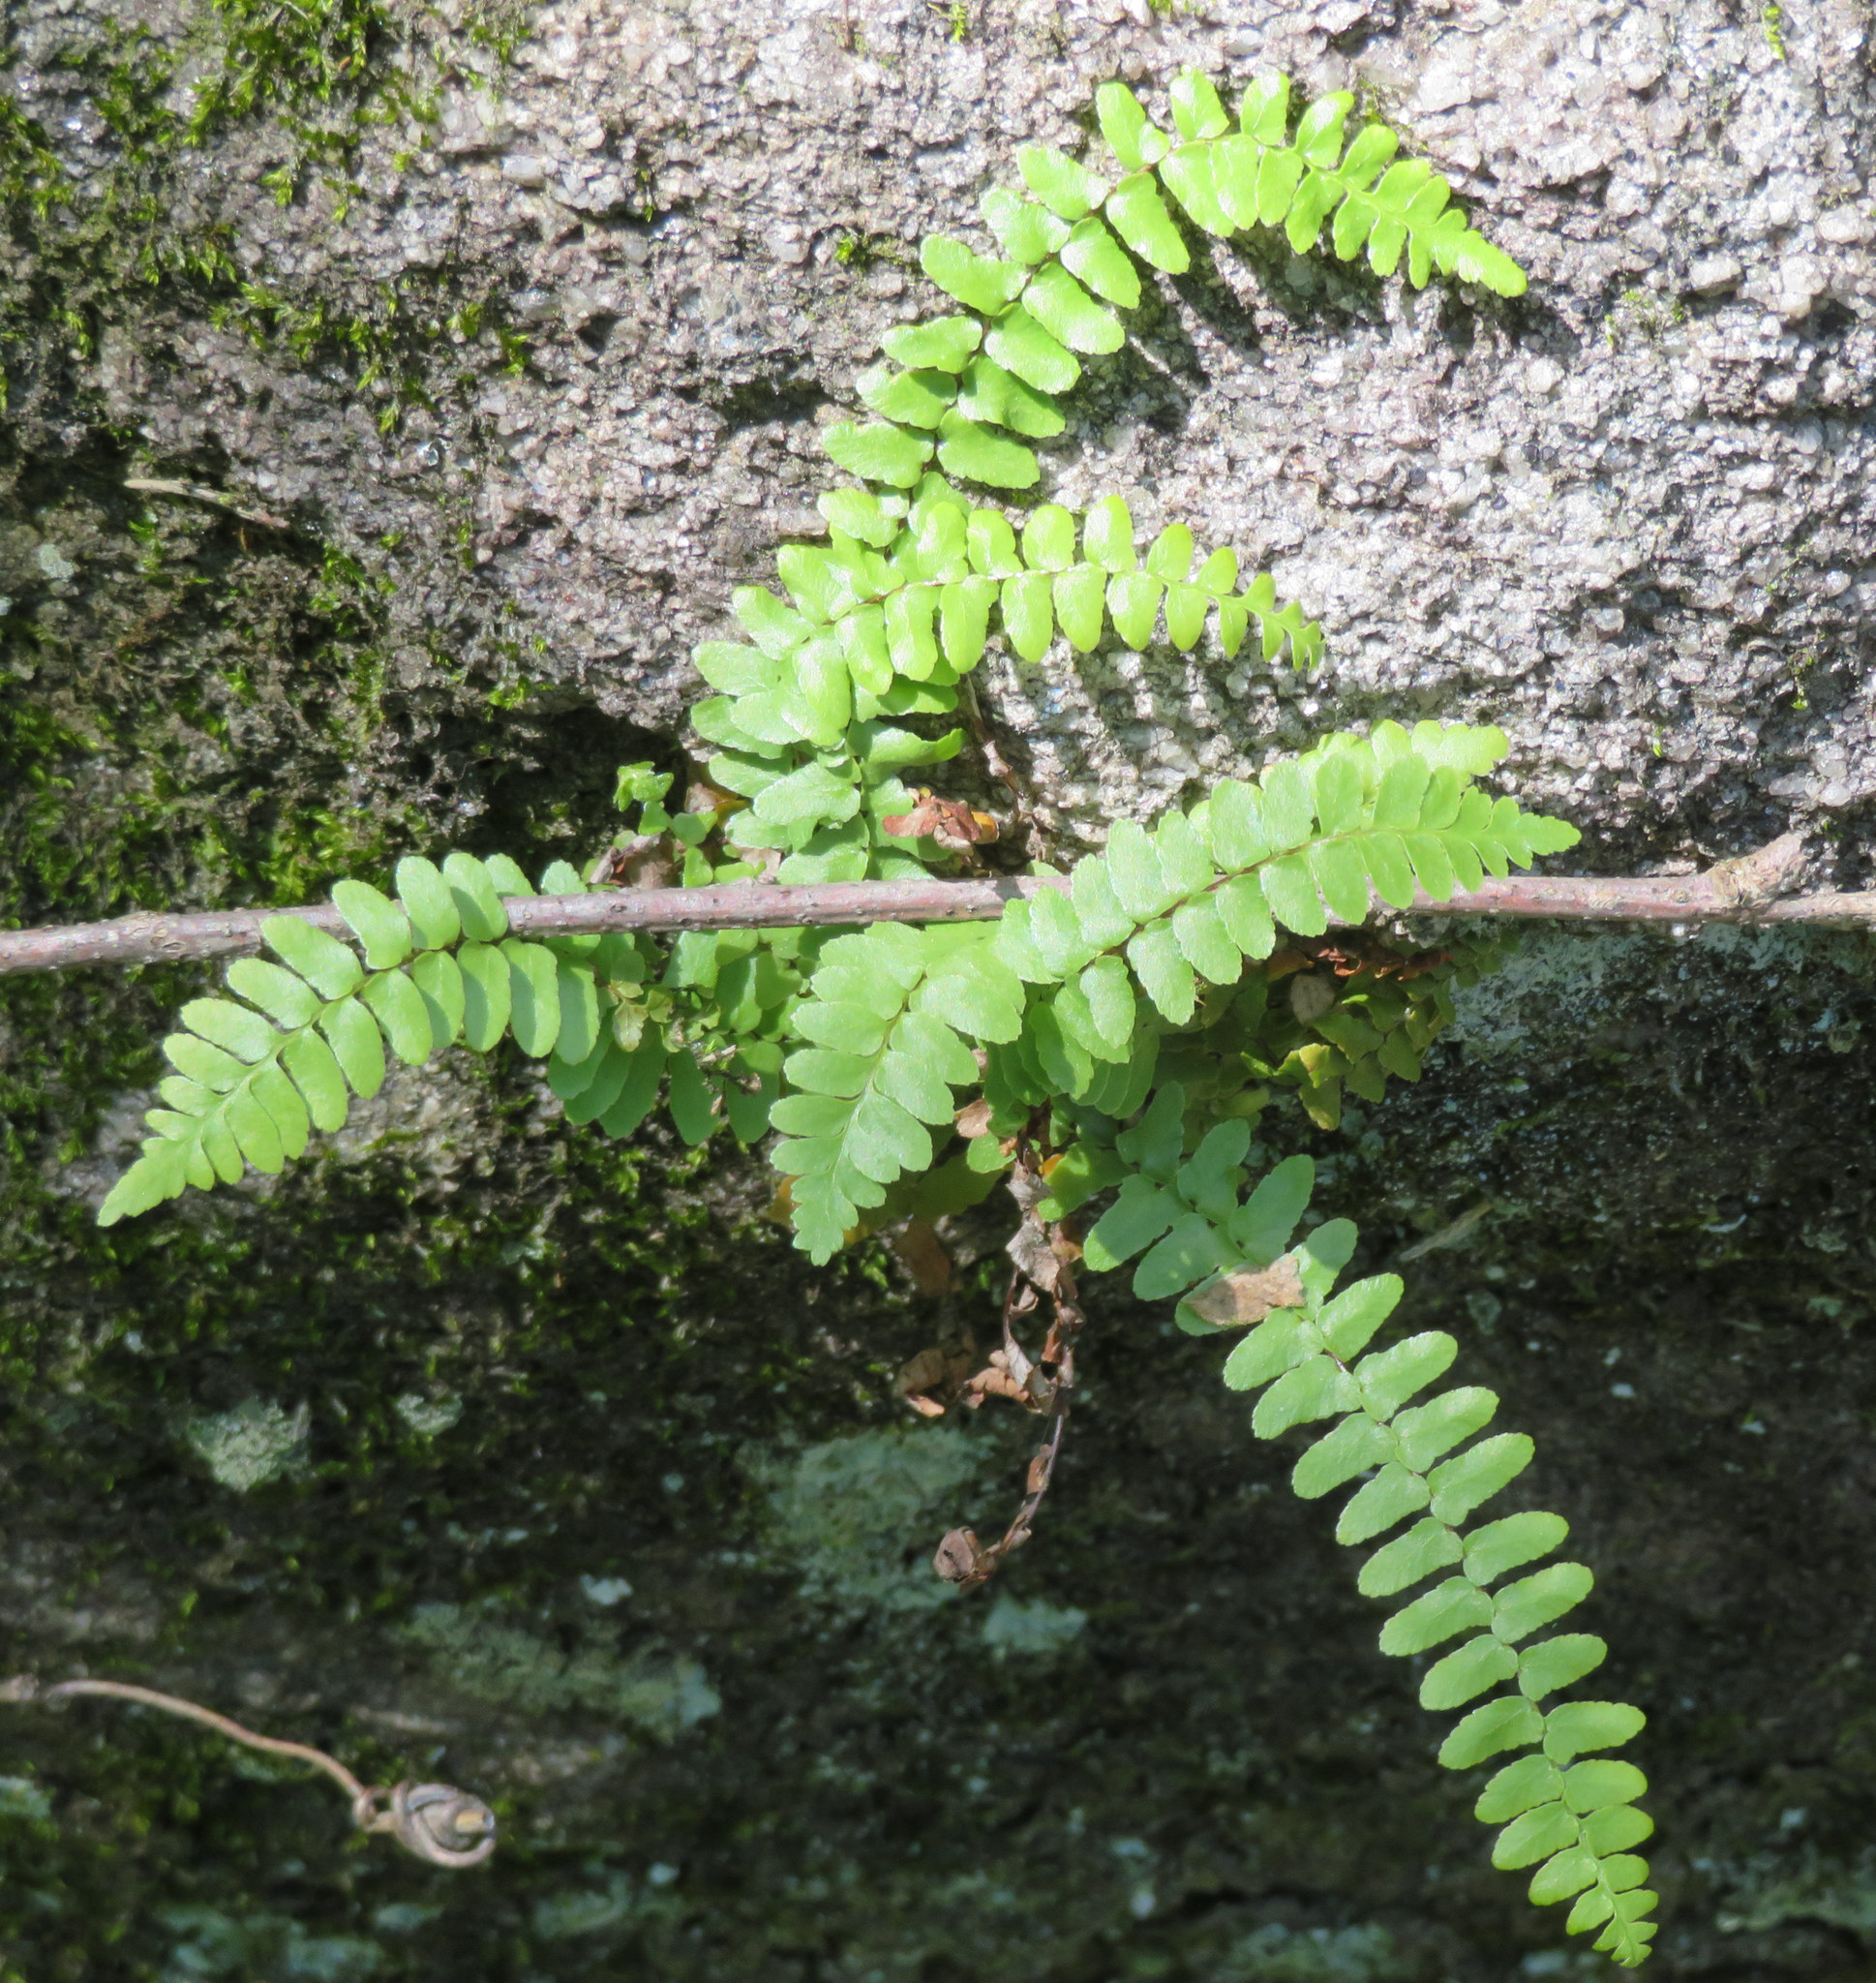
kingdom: Plantae
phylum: Tracheophyta
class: Polypodiopsida
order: Polypodiales
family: Aspleniaceae
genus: Asplenium
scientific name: Asplenium platyneuron
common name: Ebony spleenwort
